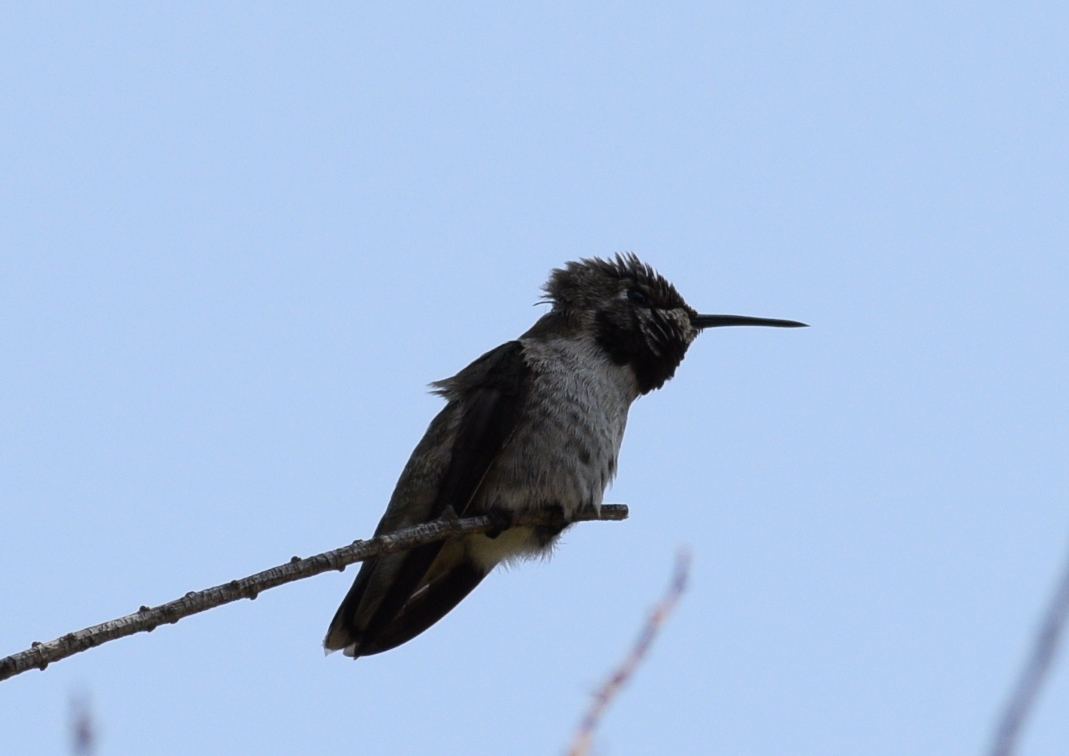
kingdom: Animalia
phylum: Chordata
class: Aves
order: Apodiformes
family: Trochilidae
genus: Calypte
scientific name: Calypte anna
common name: Anna's hummingbird
